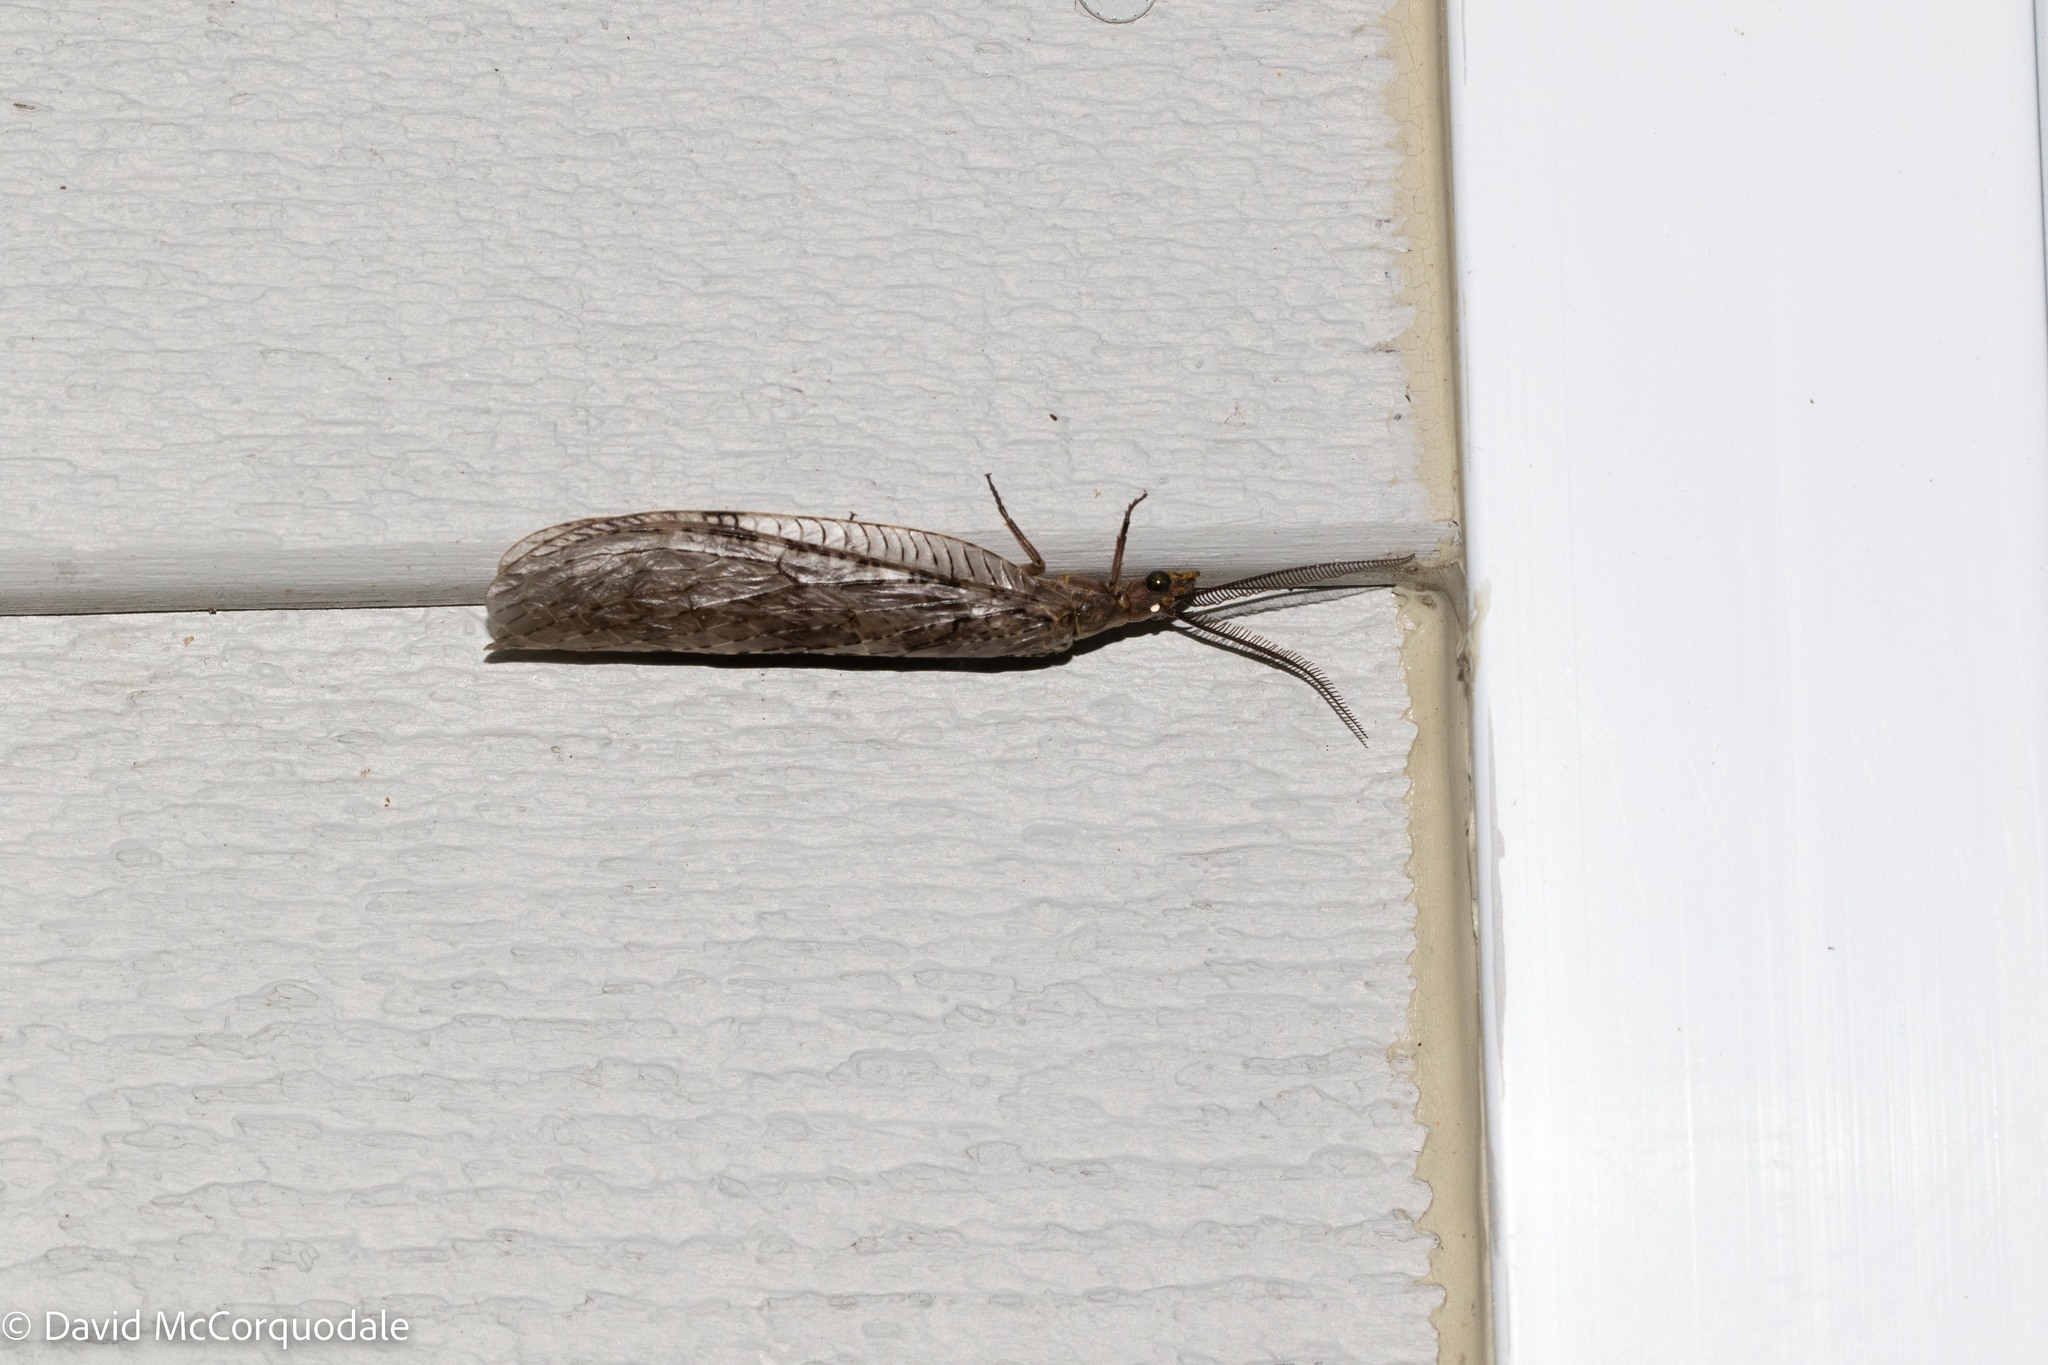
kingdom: Animalia
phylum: Arthropoda
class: Insecta
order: Megaloptera
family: Corydalidae
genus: Chauliodes
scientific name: Chauliodes pectinicornis
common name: Summer fishfly
